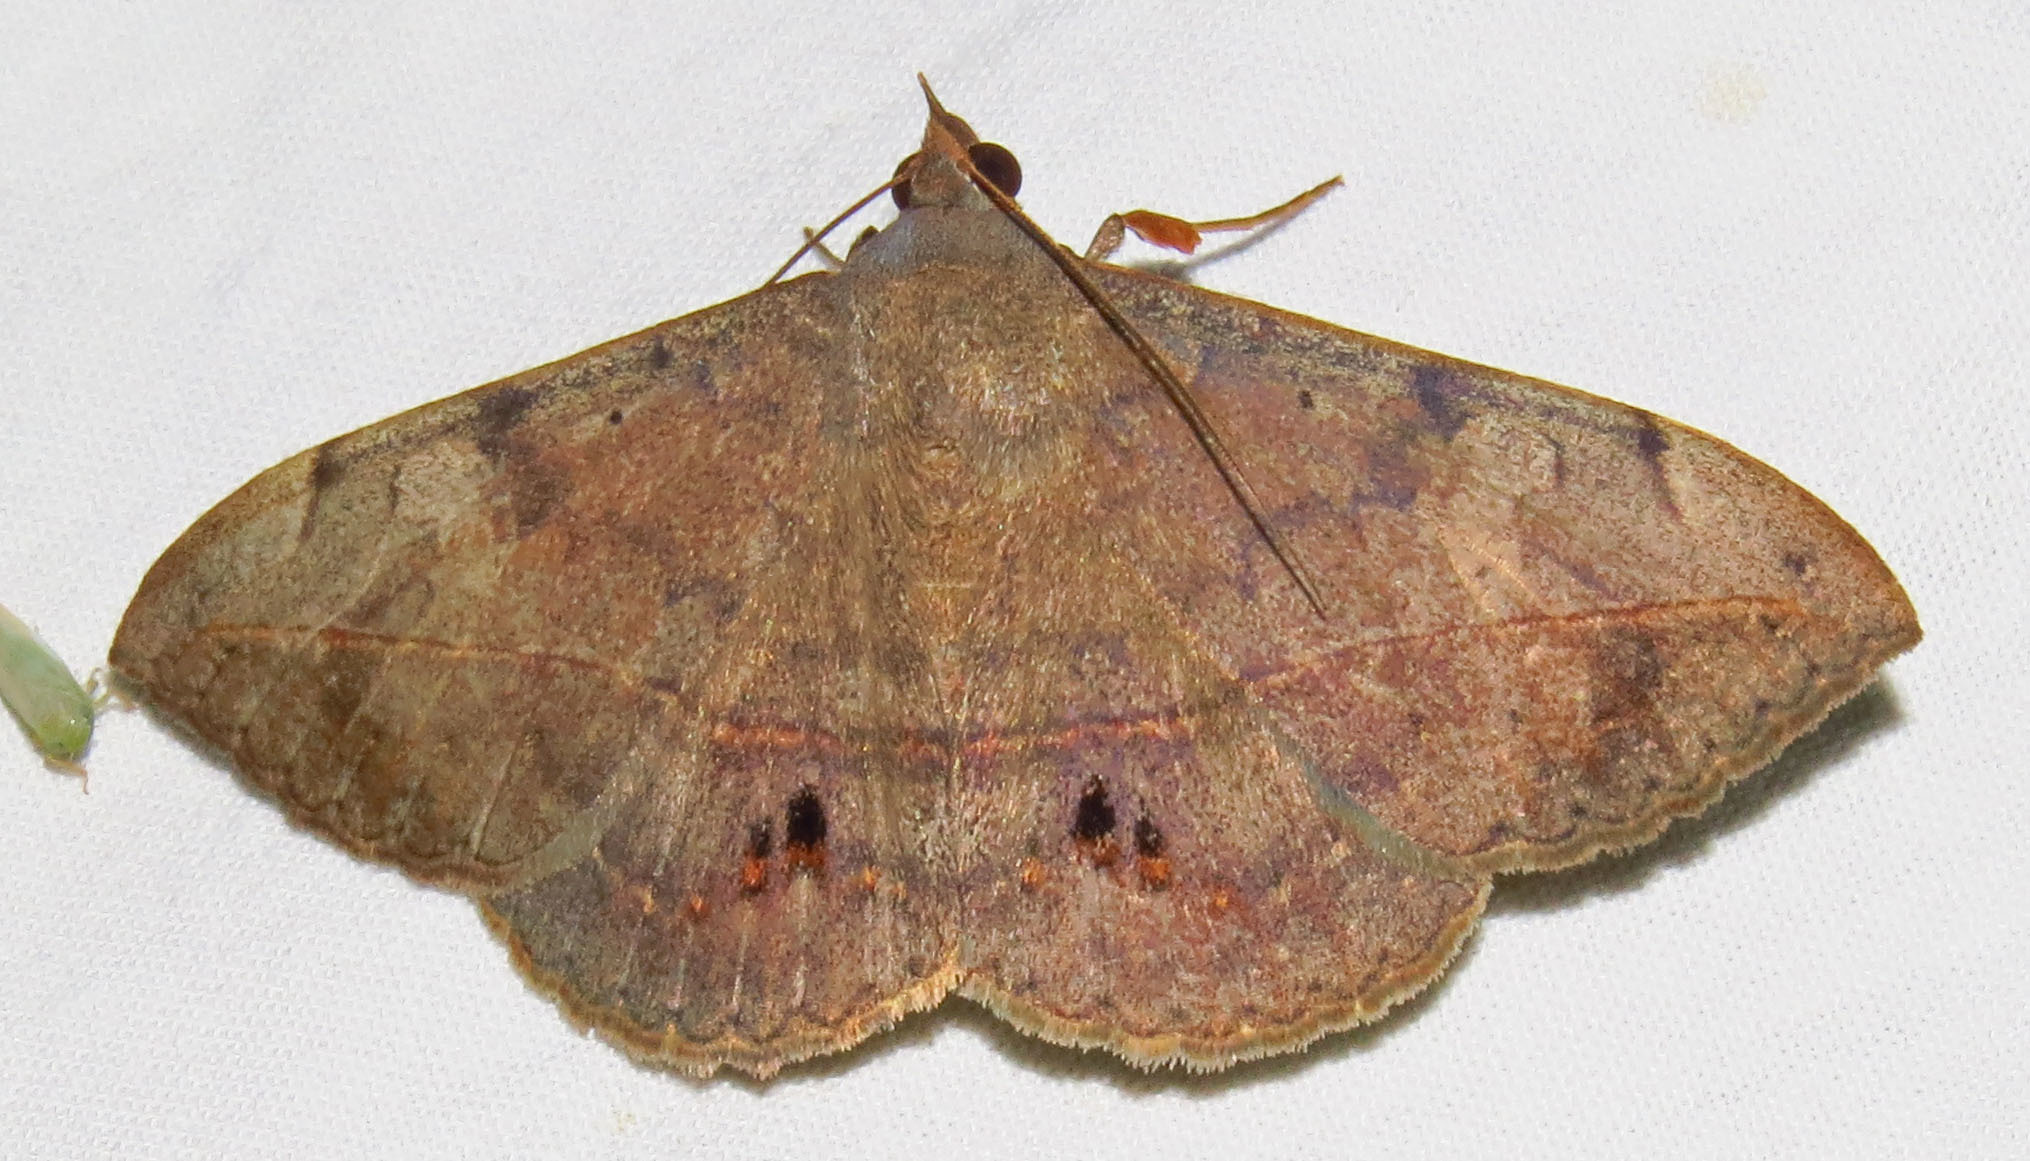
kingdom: Animalia
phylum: Arthropoda
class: Insecta
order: Lepidoptera
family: Erebidae
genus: Anticarsia
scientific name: Anticarsia gemmatalis
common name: Cutworm moth
